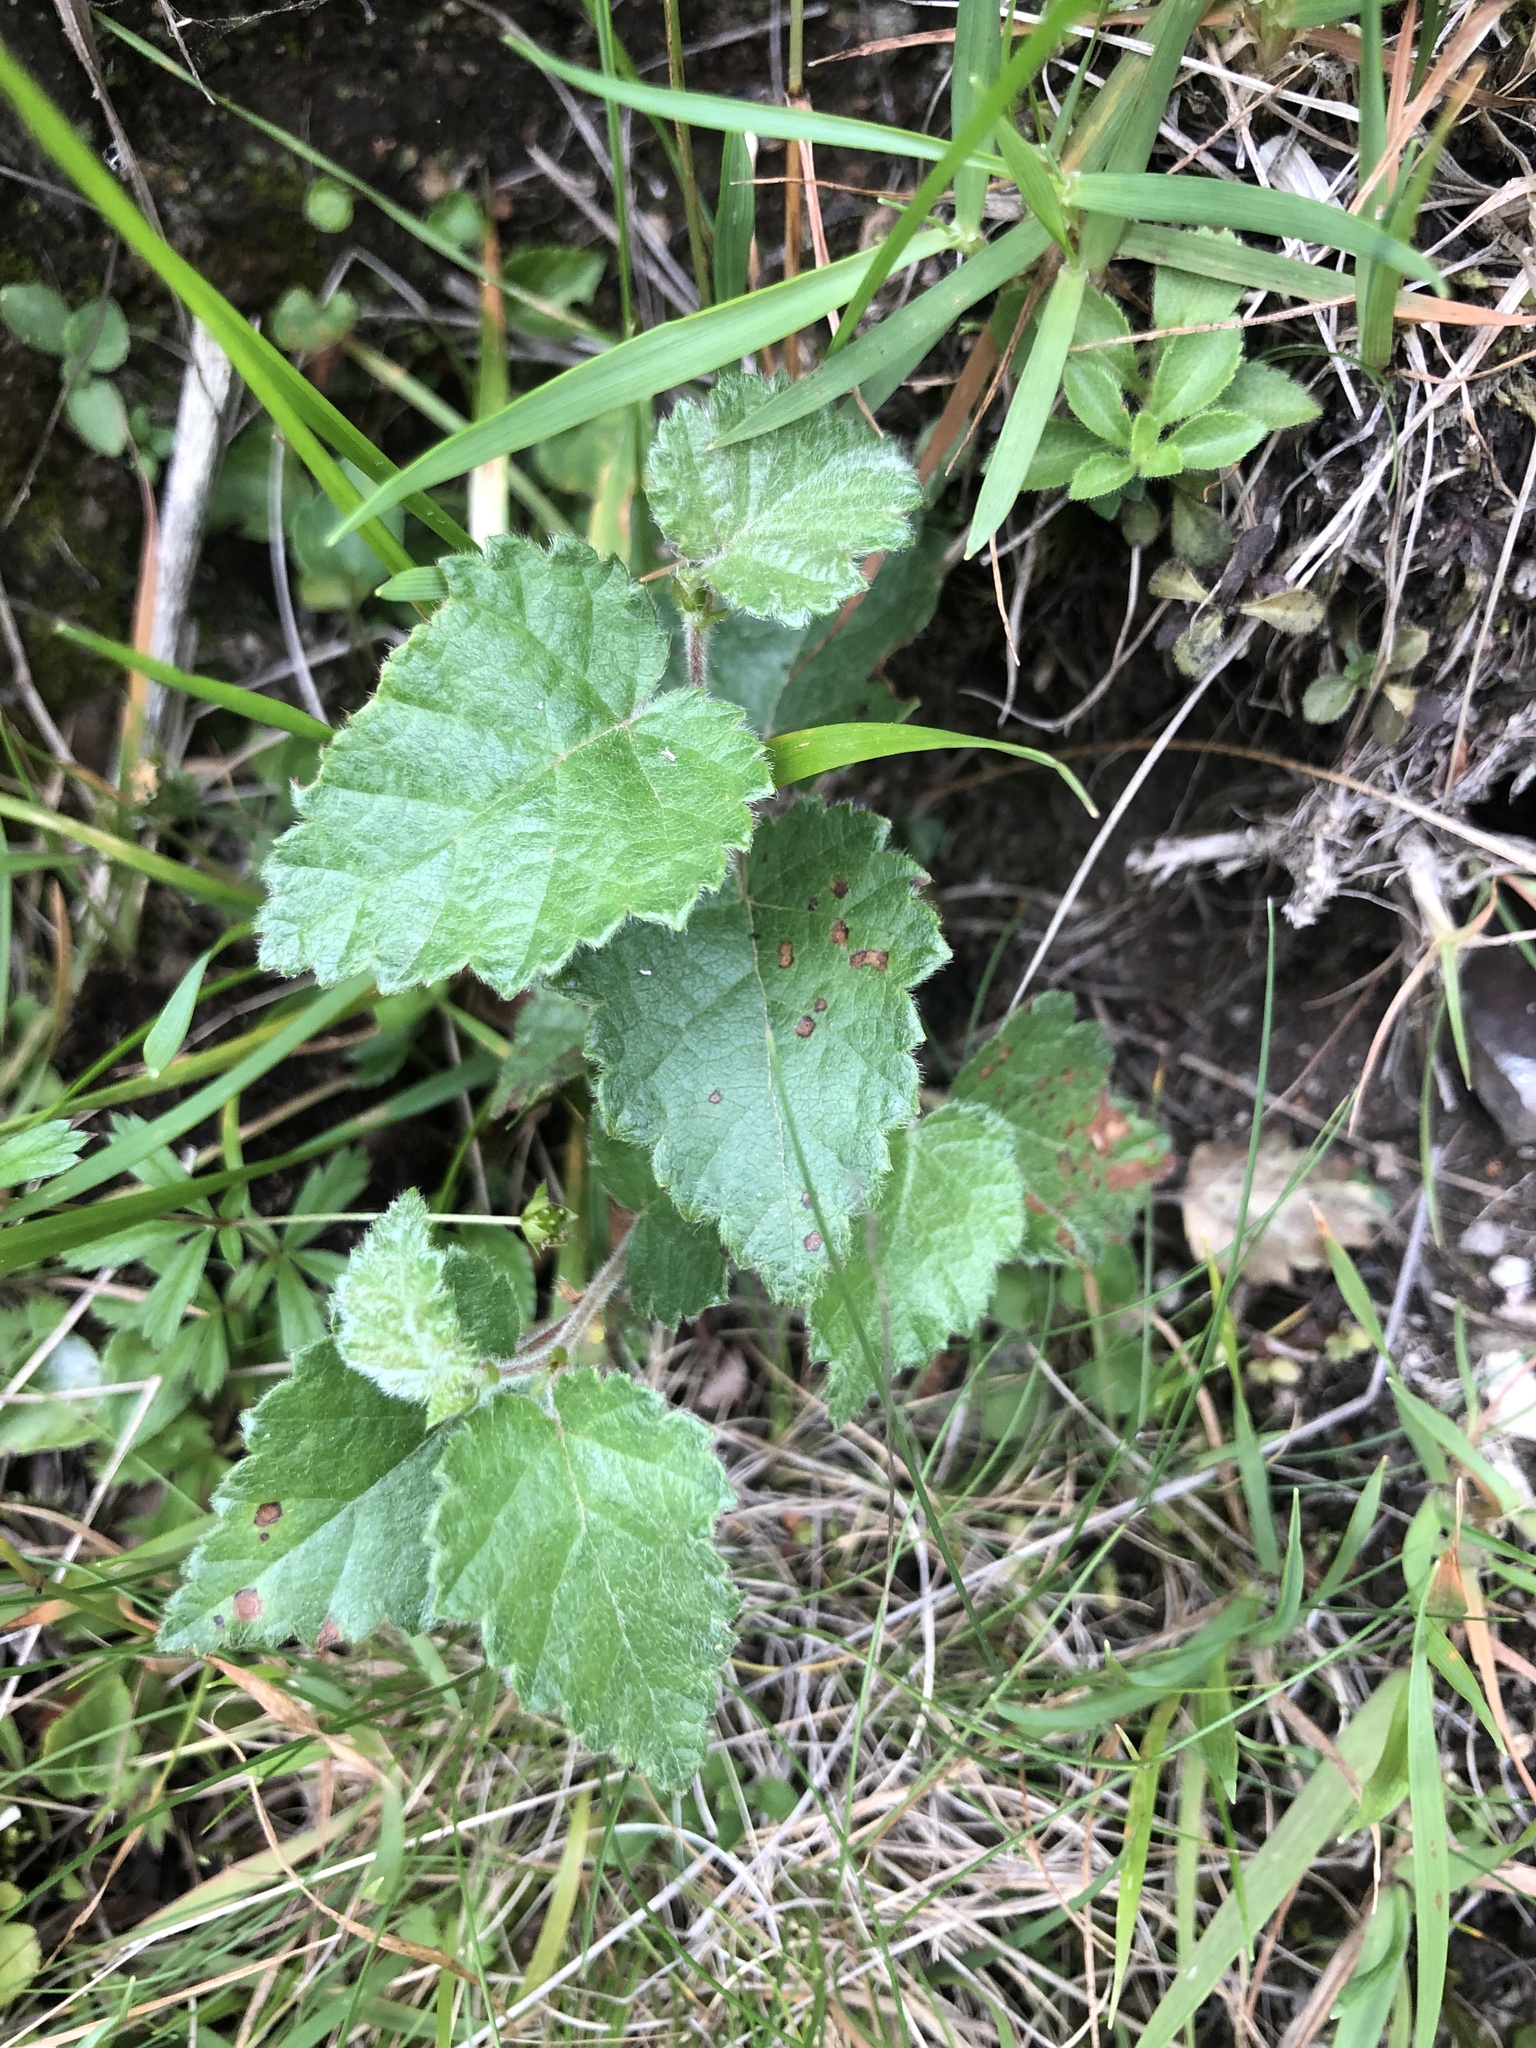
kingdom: Plantae
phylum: Tracheophyta
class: Magnoliopsida
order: Fagales
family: Betulaceae
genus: Betula
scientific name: Betula pubescens
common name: Downy birch
